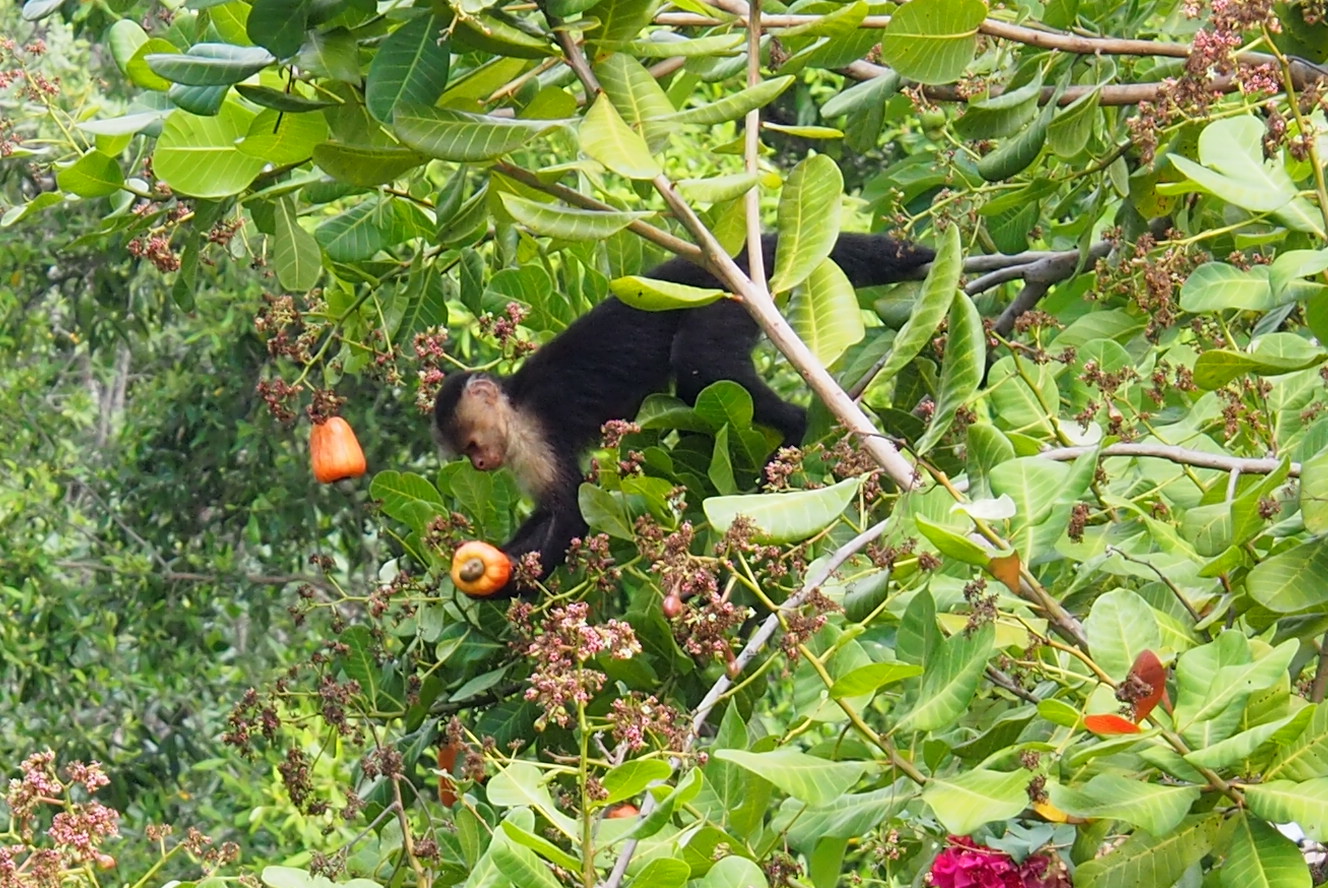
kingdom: Animalia
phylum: Chordata
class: Mammalia
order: Primates
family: Cebidae
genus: Cebus
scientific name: Cebus imitator
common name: Panamanian white-faced capuchin
